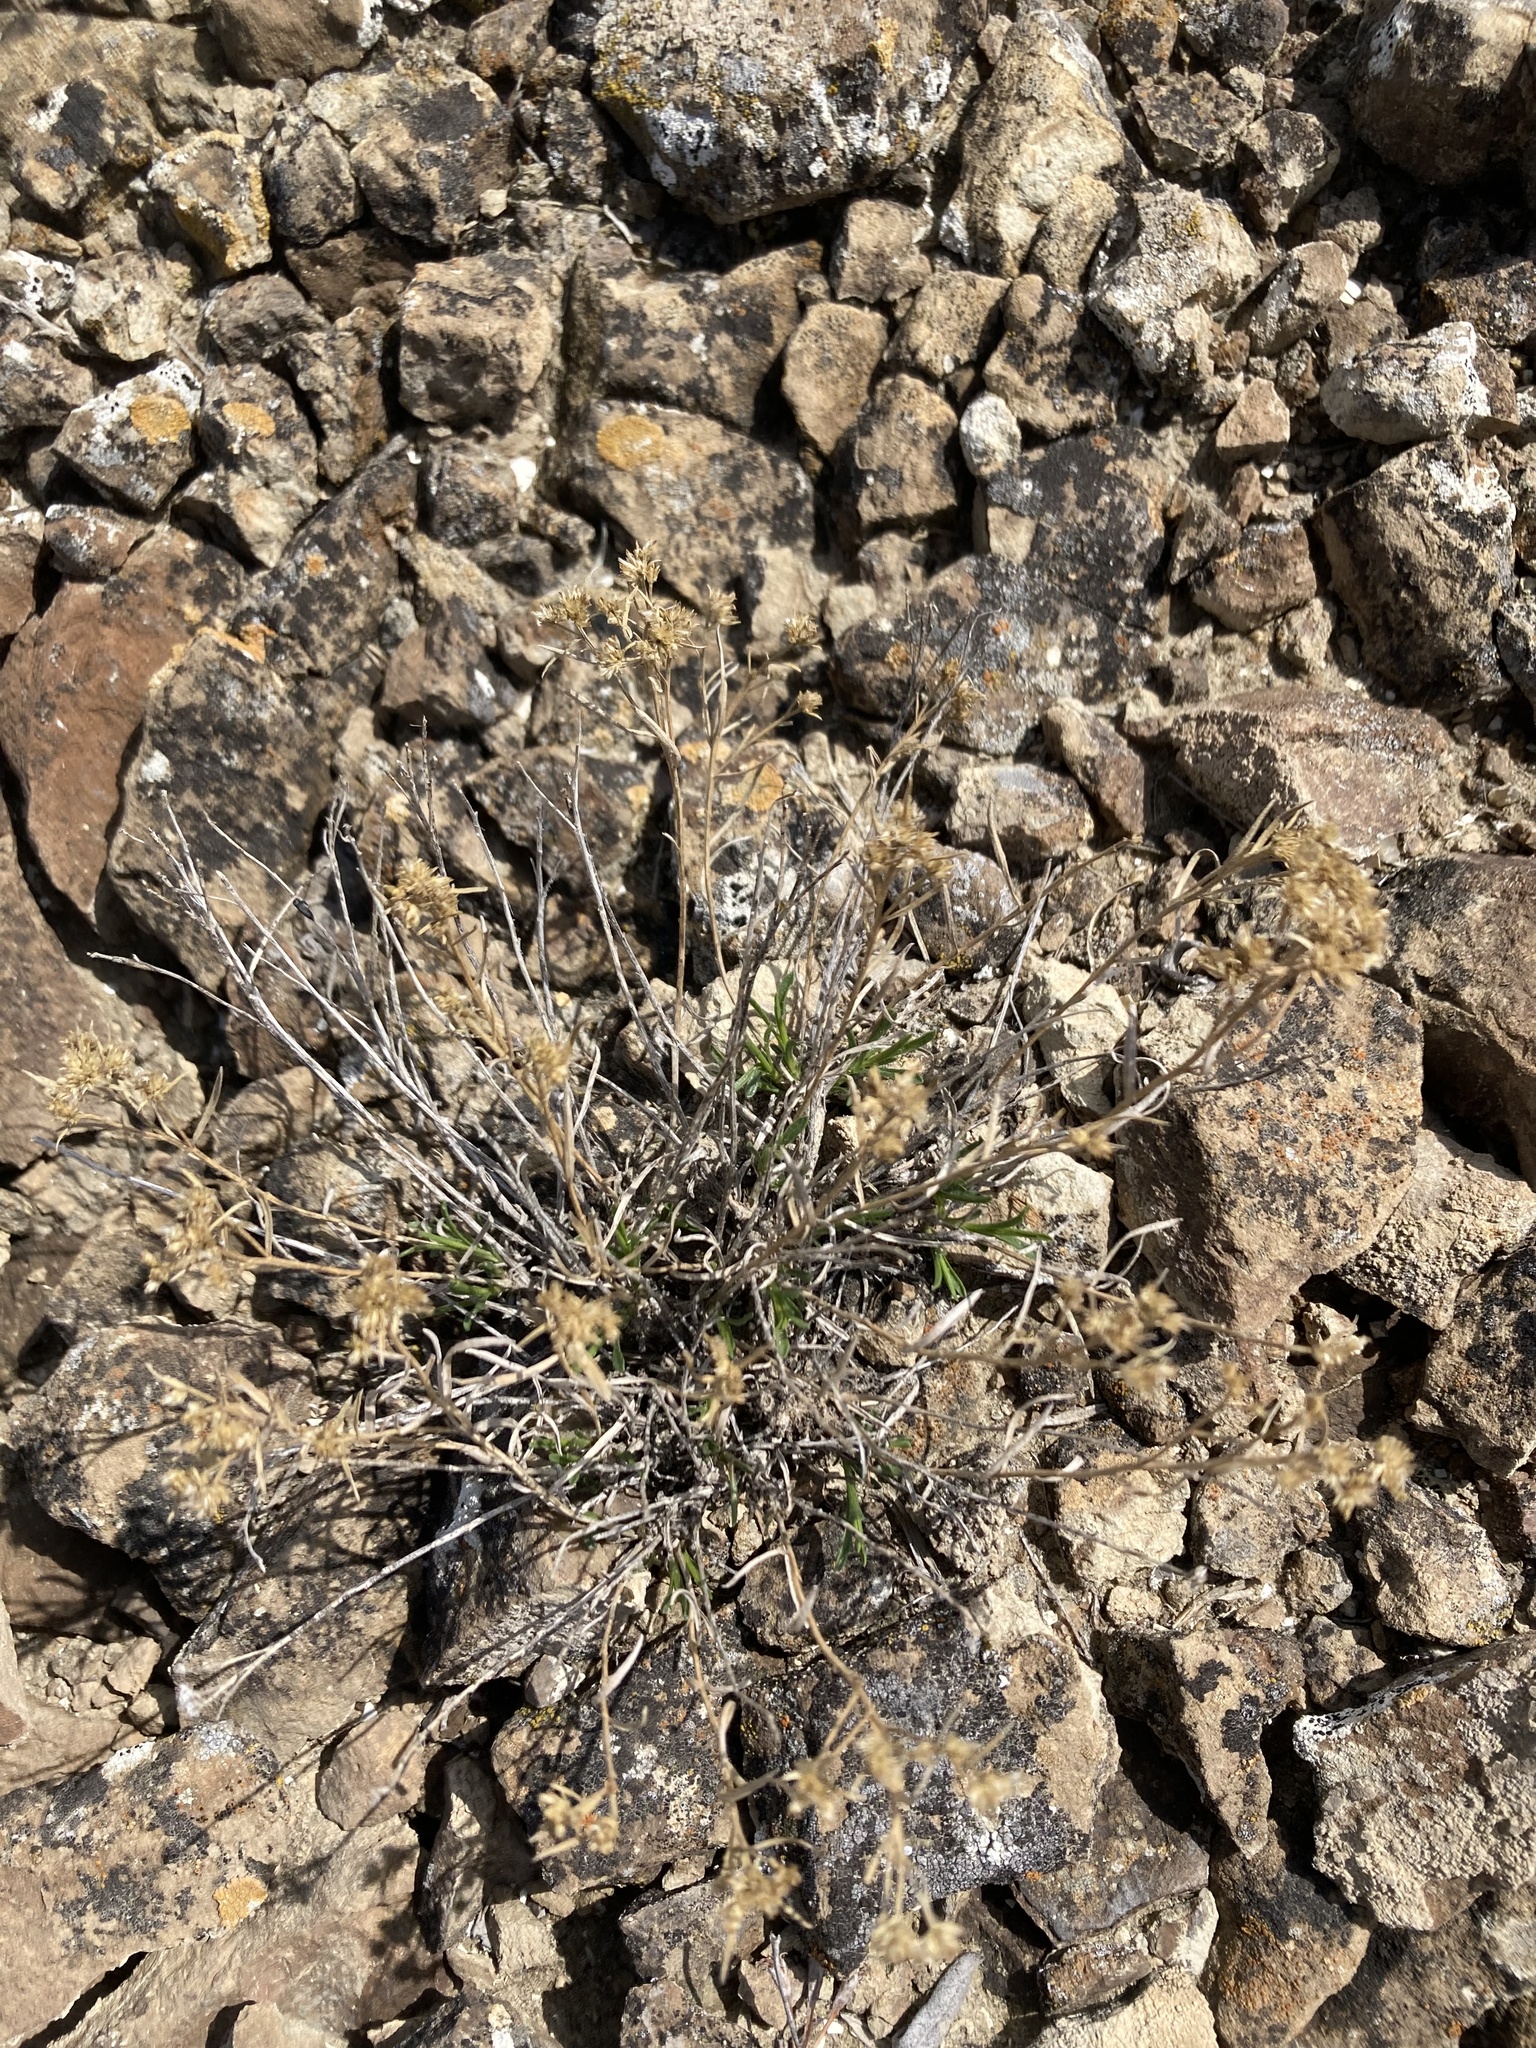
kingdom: Plantae
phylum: Tracheophyta
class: Magnoliopsida
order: Asterales
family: Asteraceae
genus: Gutierrezia
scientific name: Gutierrezia sarothrae
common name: Broom snakeweed
